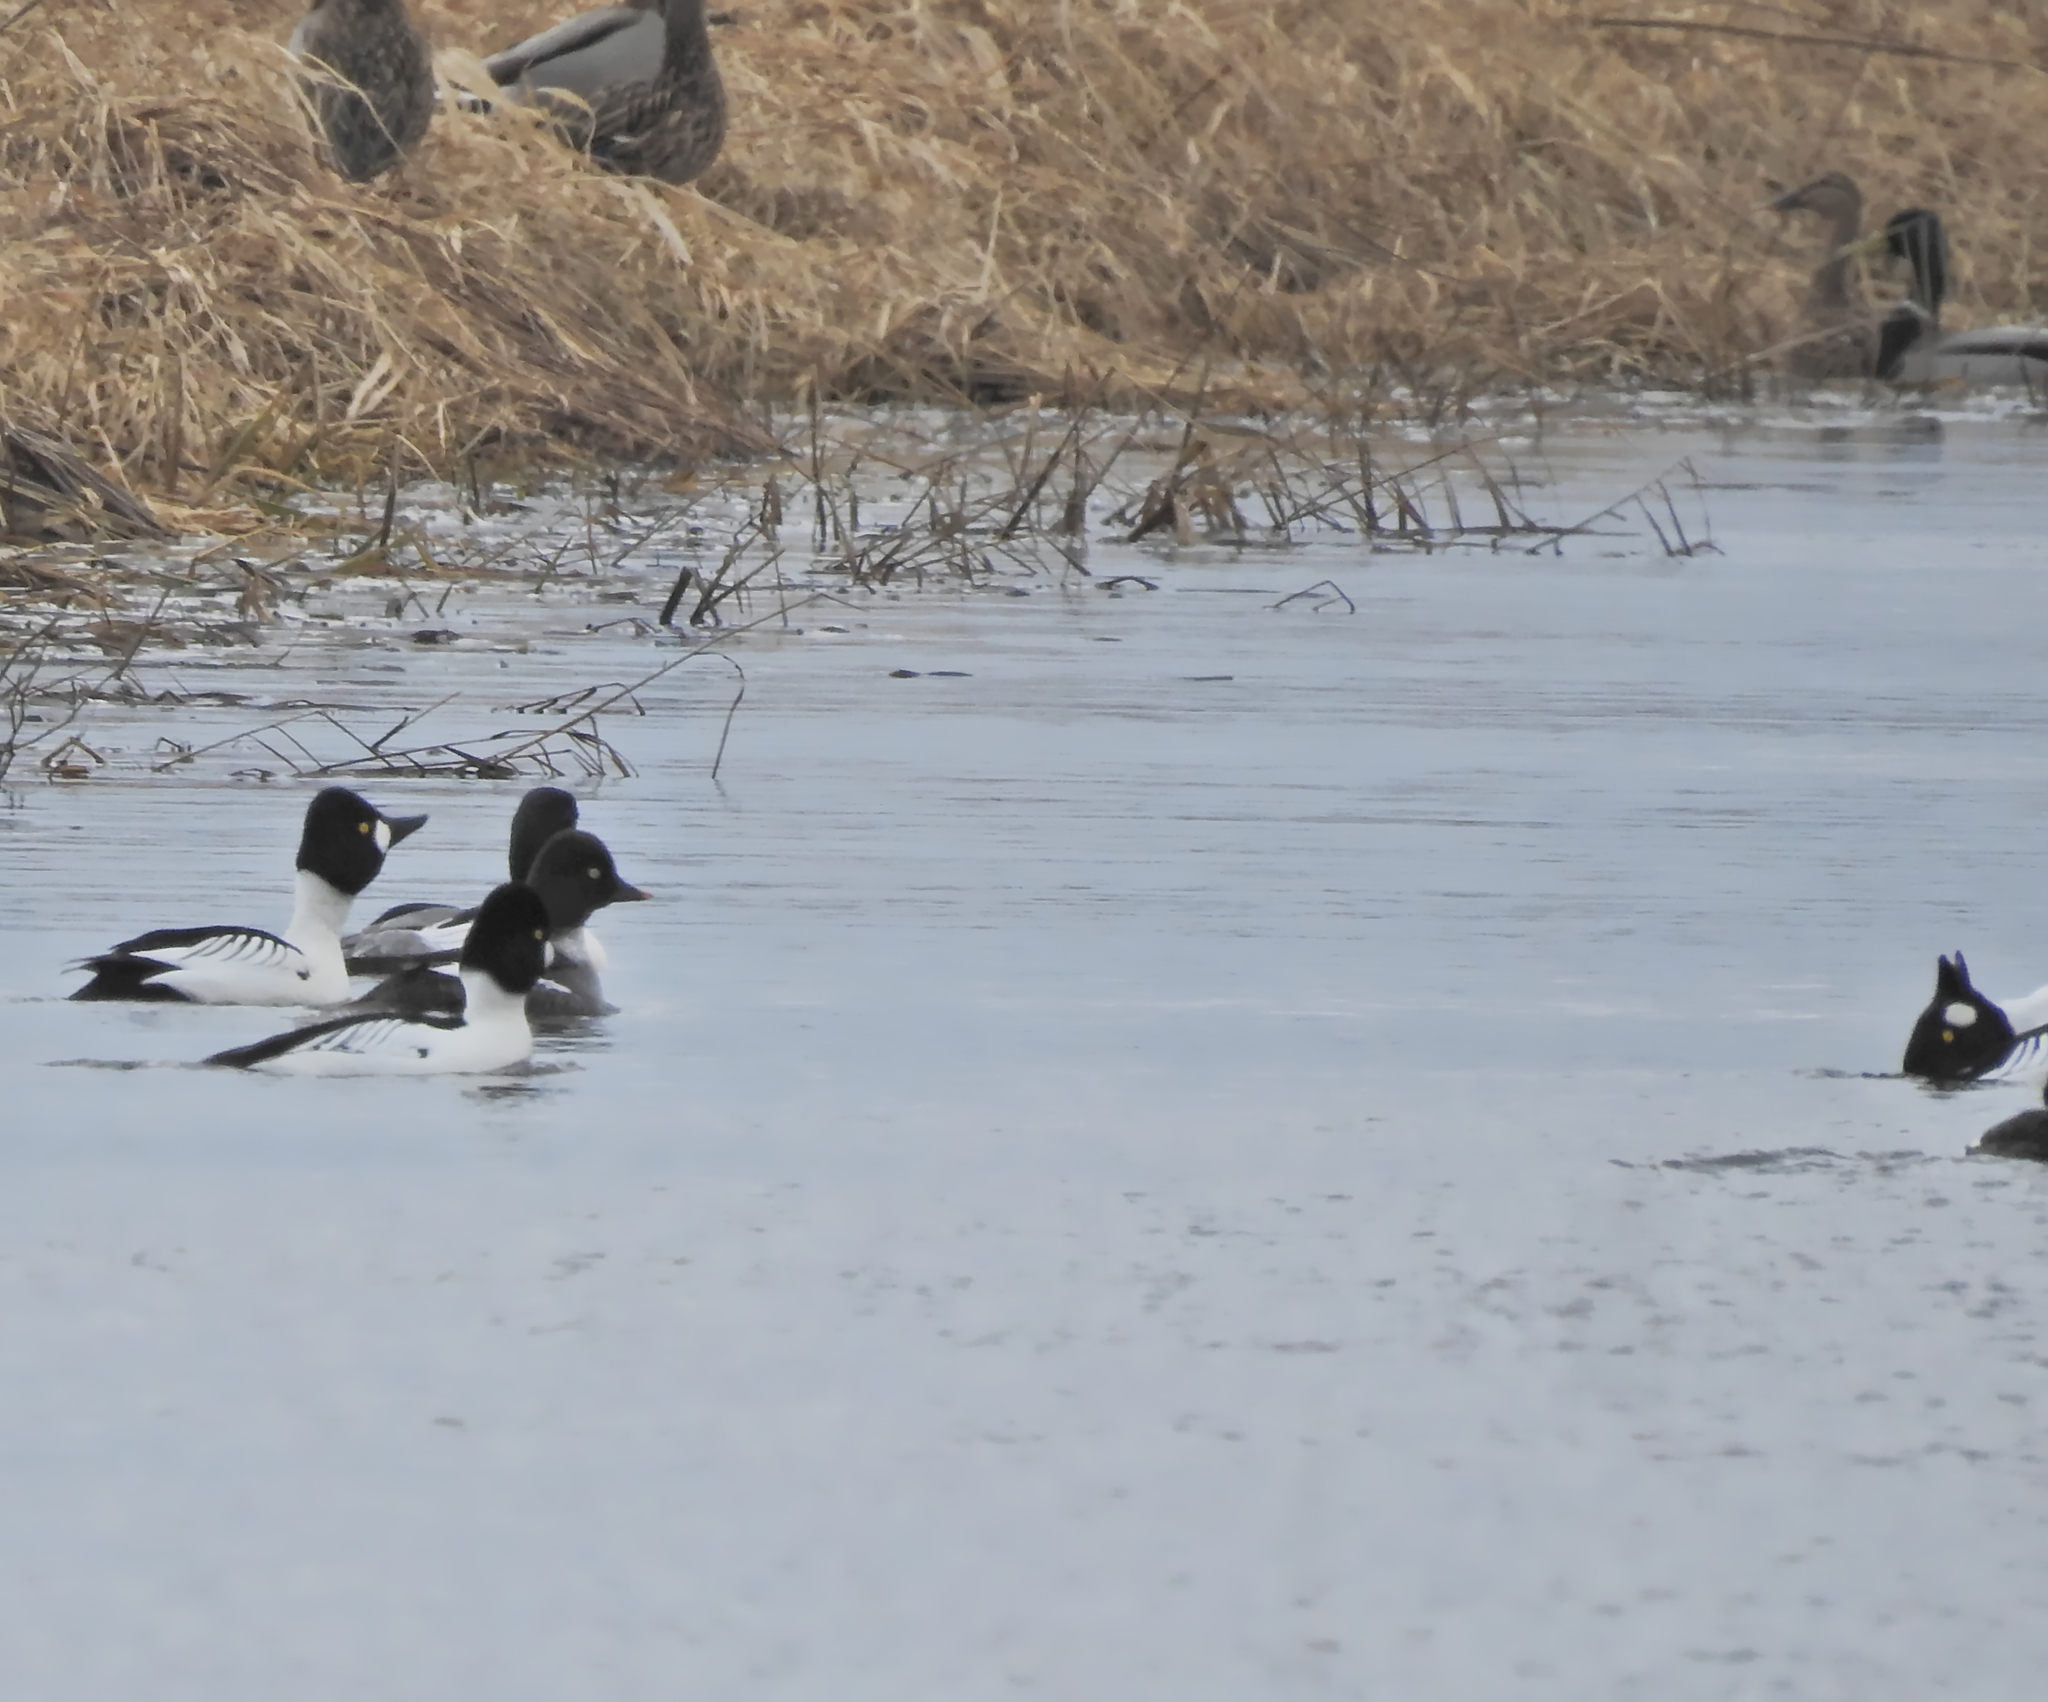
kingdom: Animalia
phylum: Chordata
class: Aves
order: Anseriformes
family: Anatidae
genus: Bucephala
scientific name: Bucephala clangula
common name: Common goldeneye
